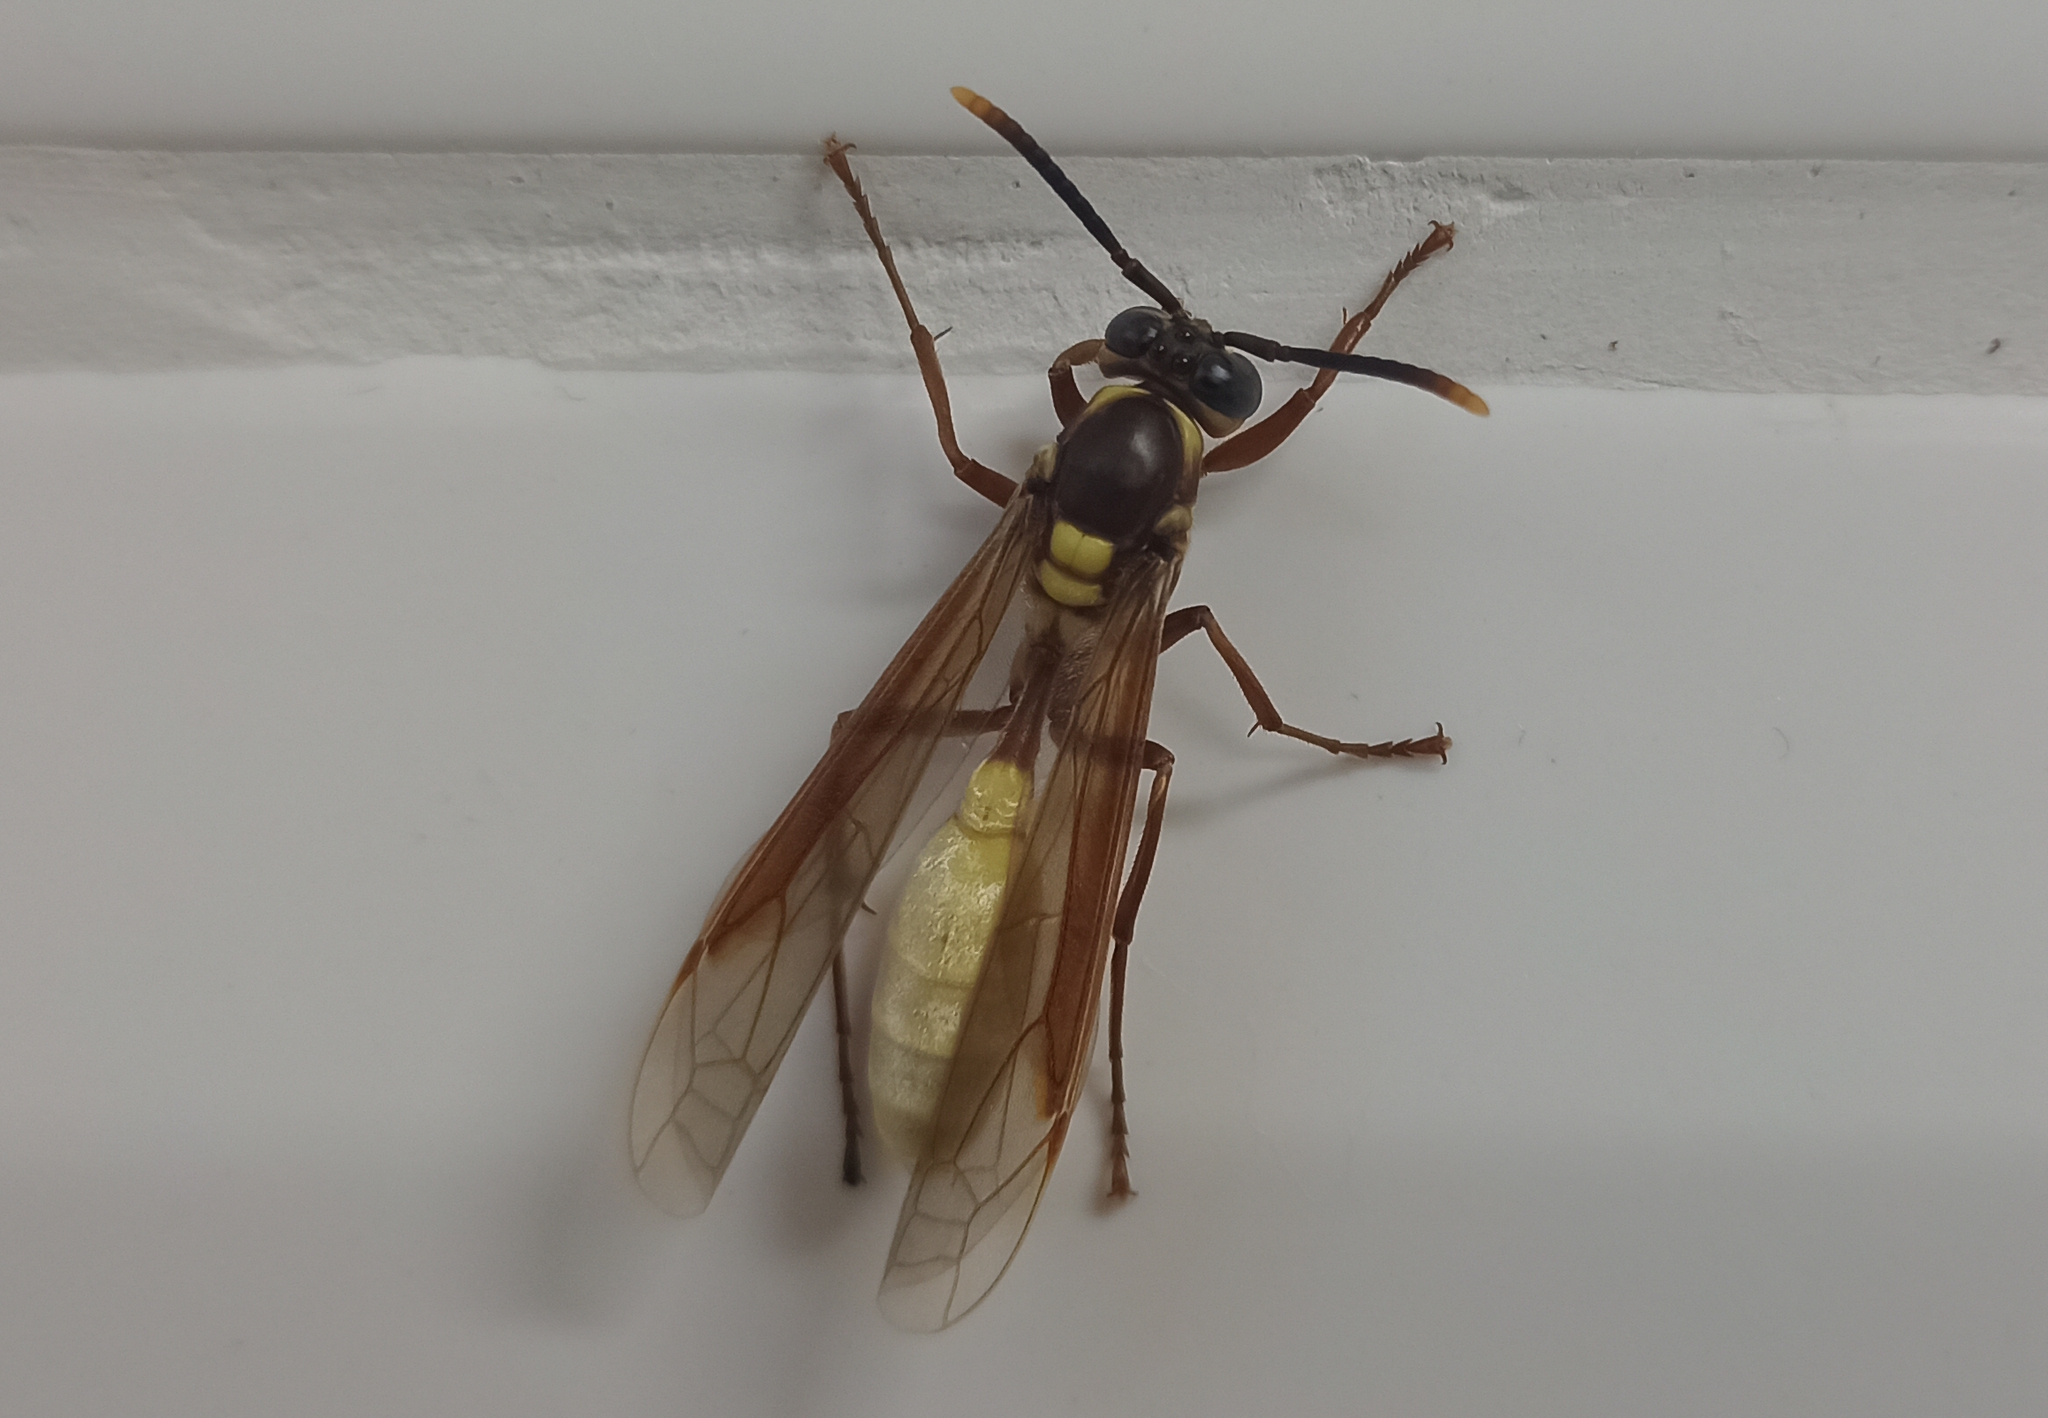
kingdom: Animalia
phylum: Arthropoda
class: Insecta
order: Hymenoptera
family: Vespidae
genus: Apoica
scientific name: Apoica pallens
